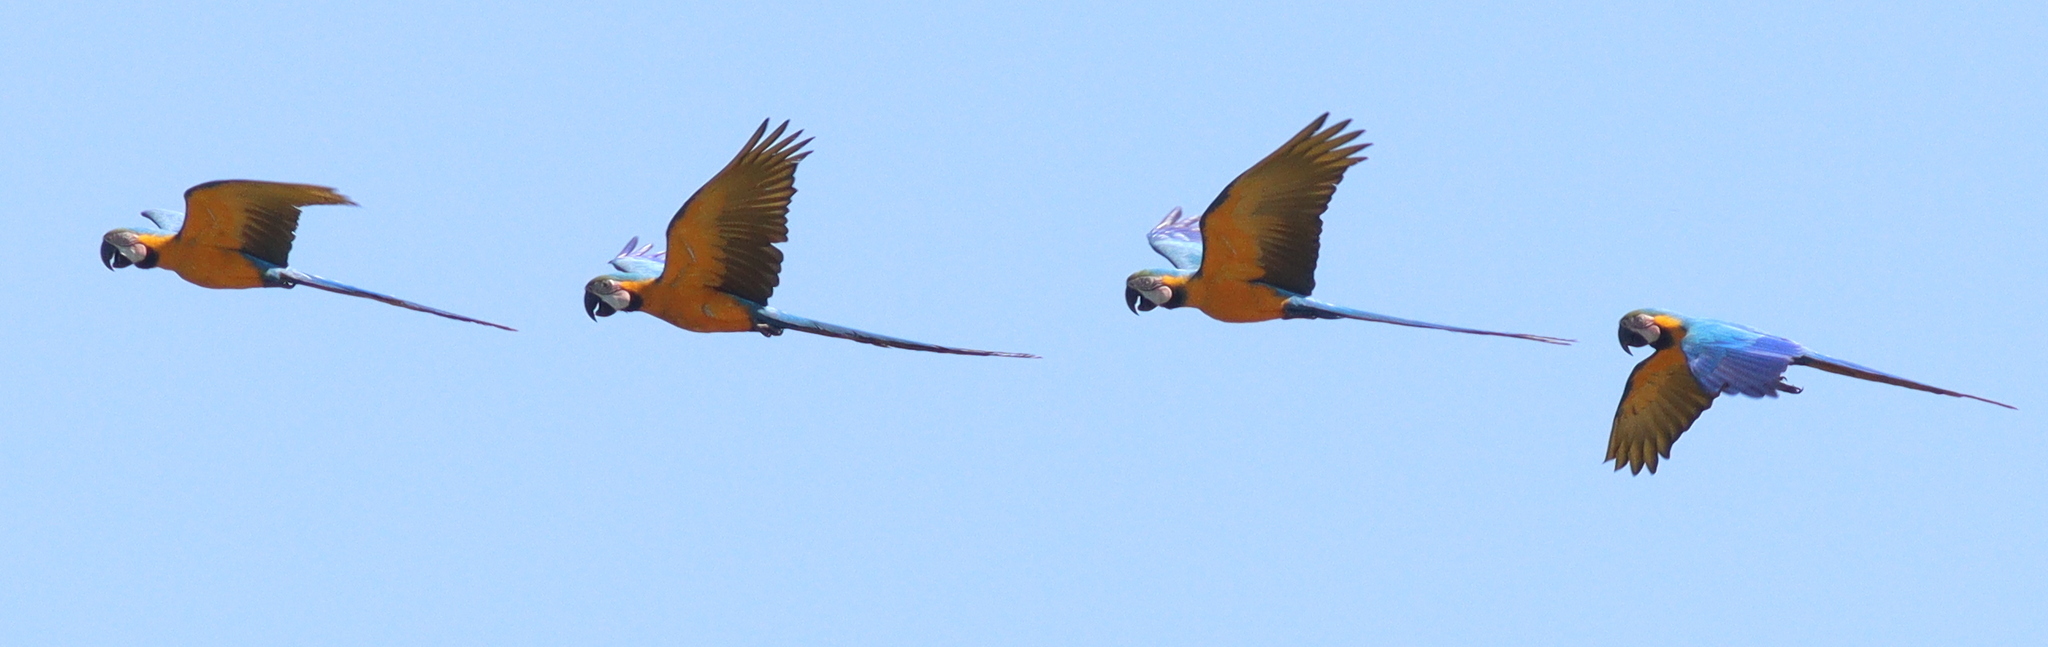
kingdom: Animalia
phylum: Chordata
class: Aves
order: Psittaciformes
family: Psittacidae
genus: Ara
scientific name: Ara ararauna
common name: Blue-and-yellow macaw
